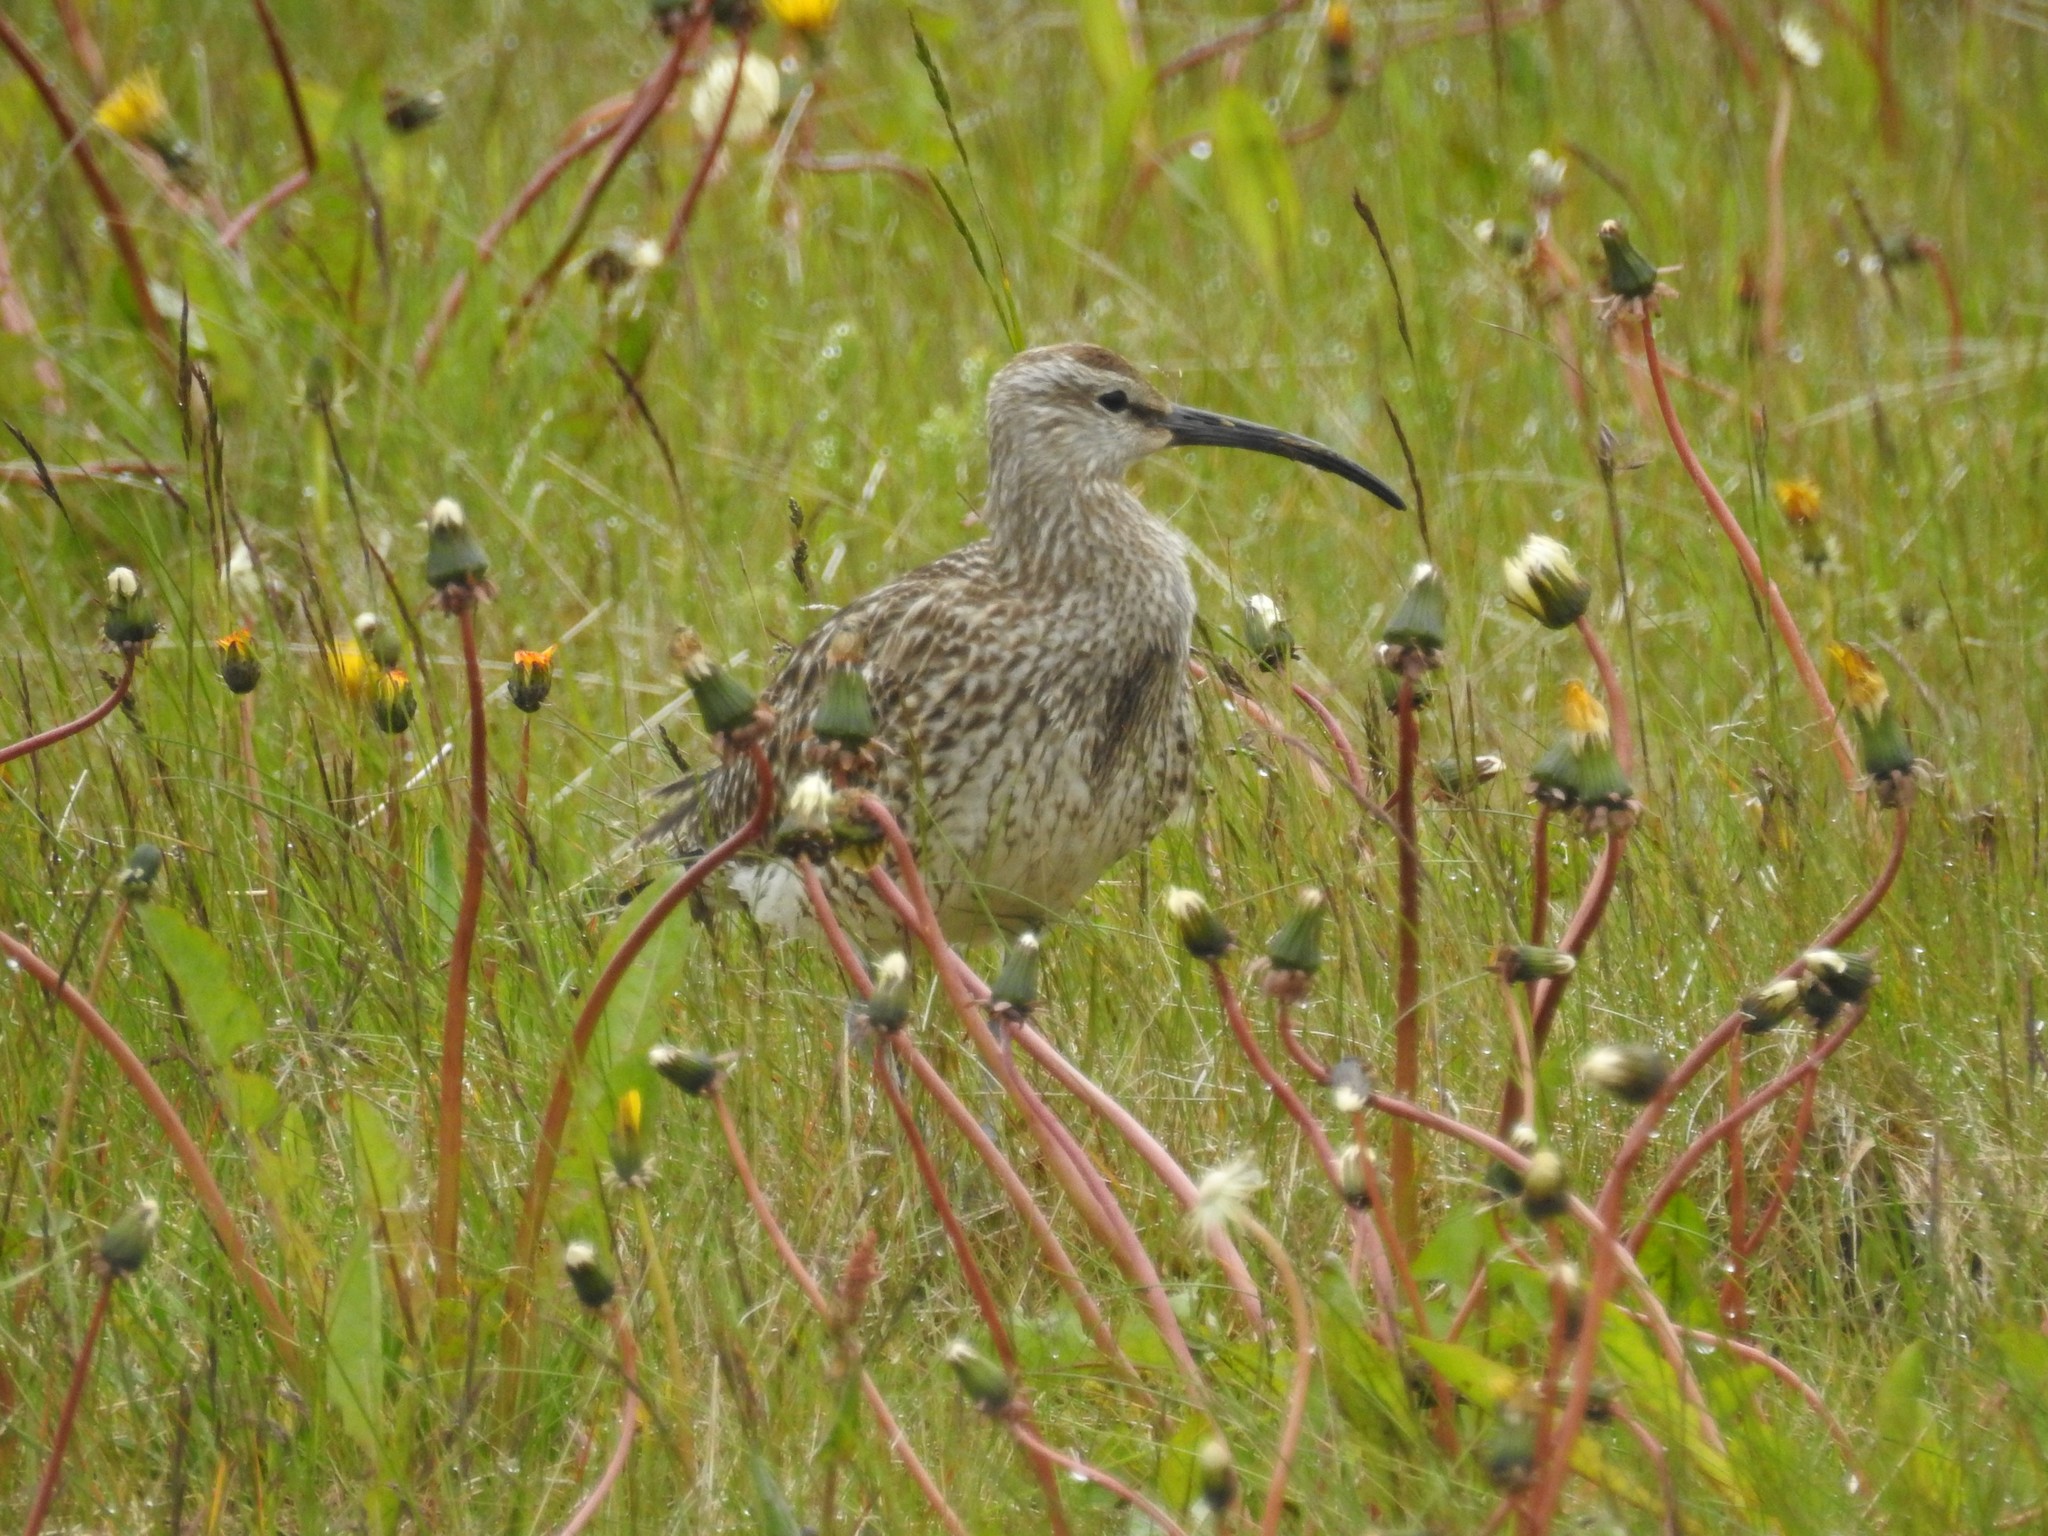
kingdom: Animalia
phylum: Chordata
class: Aves
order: Charadriiformes
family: Scolopacidae
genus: Numenius
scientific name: Numenius phaeopus
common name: Whimbrel
